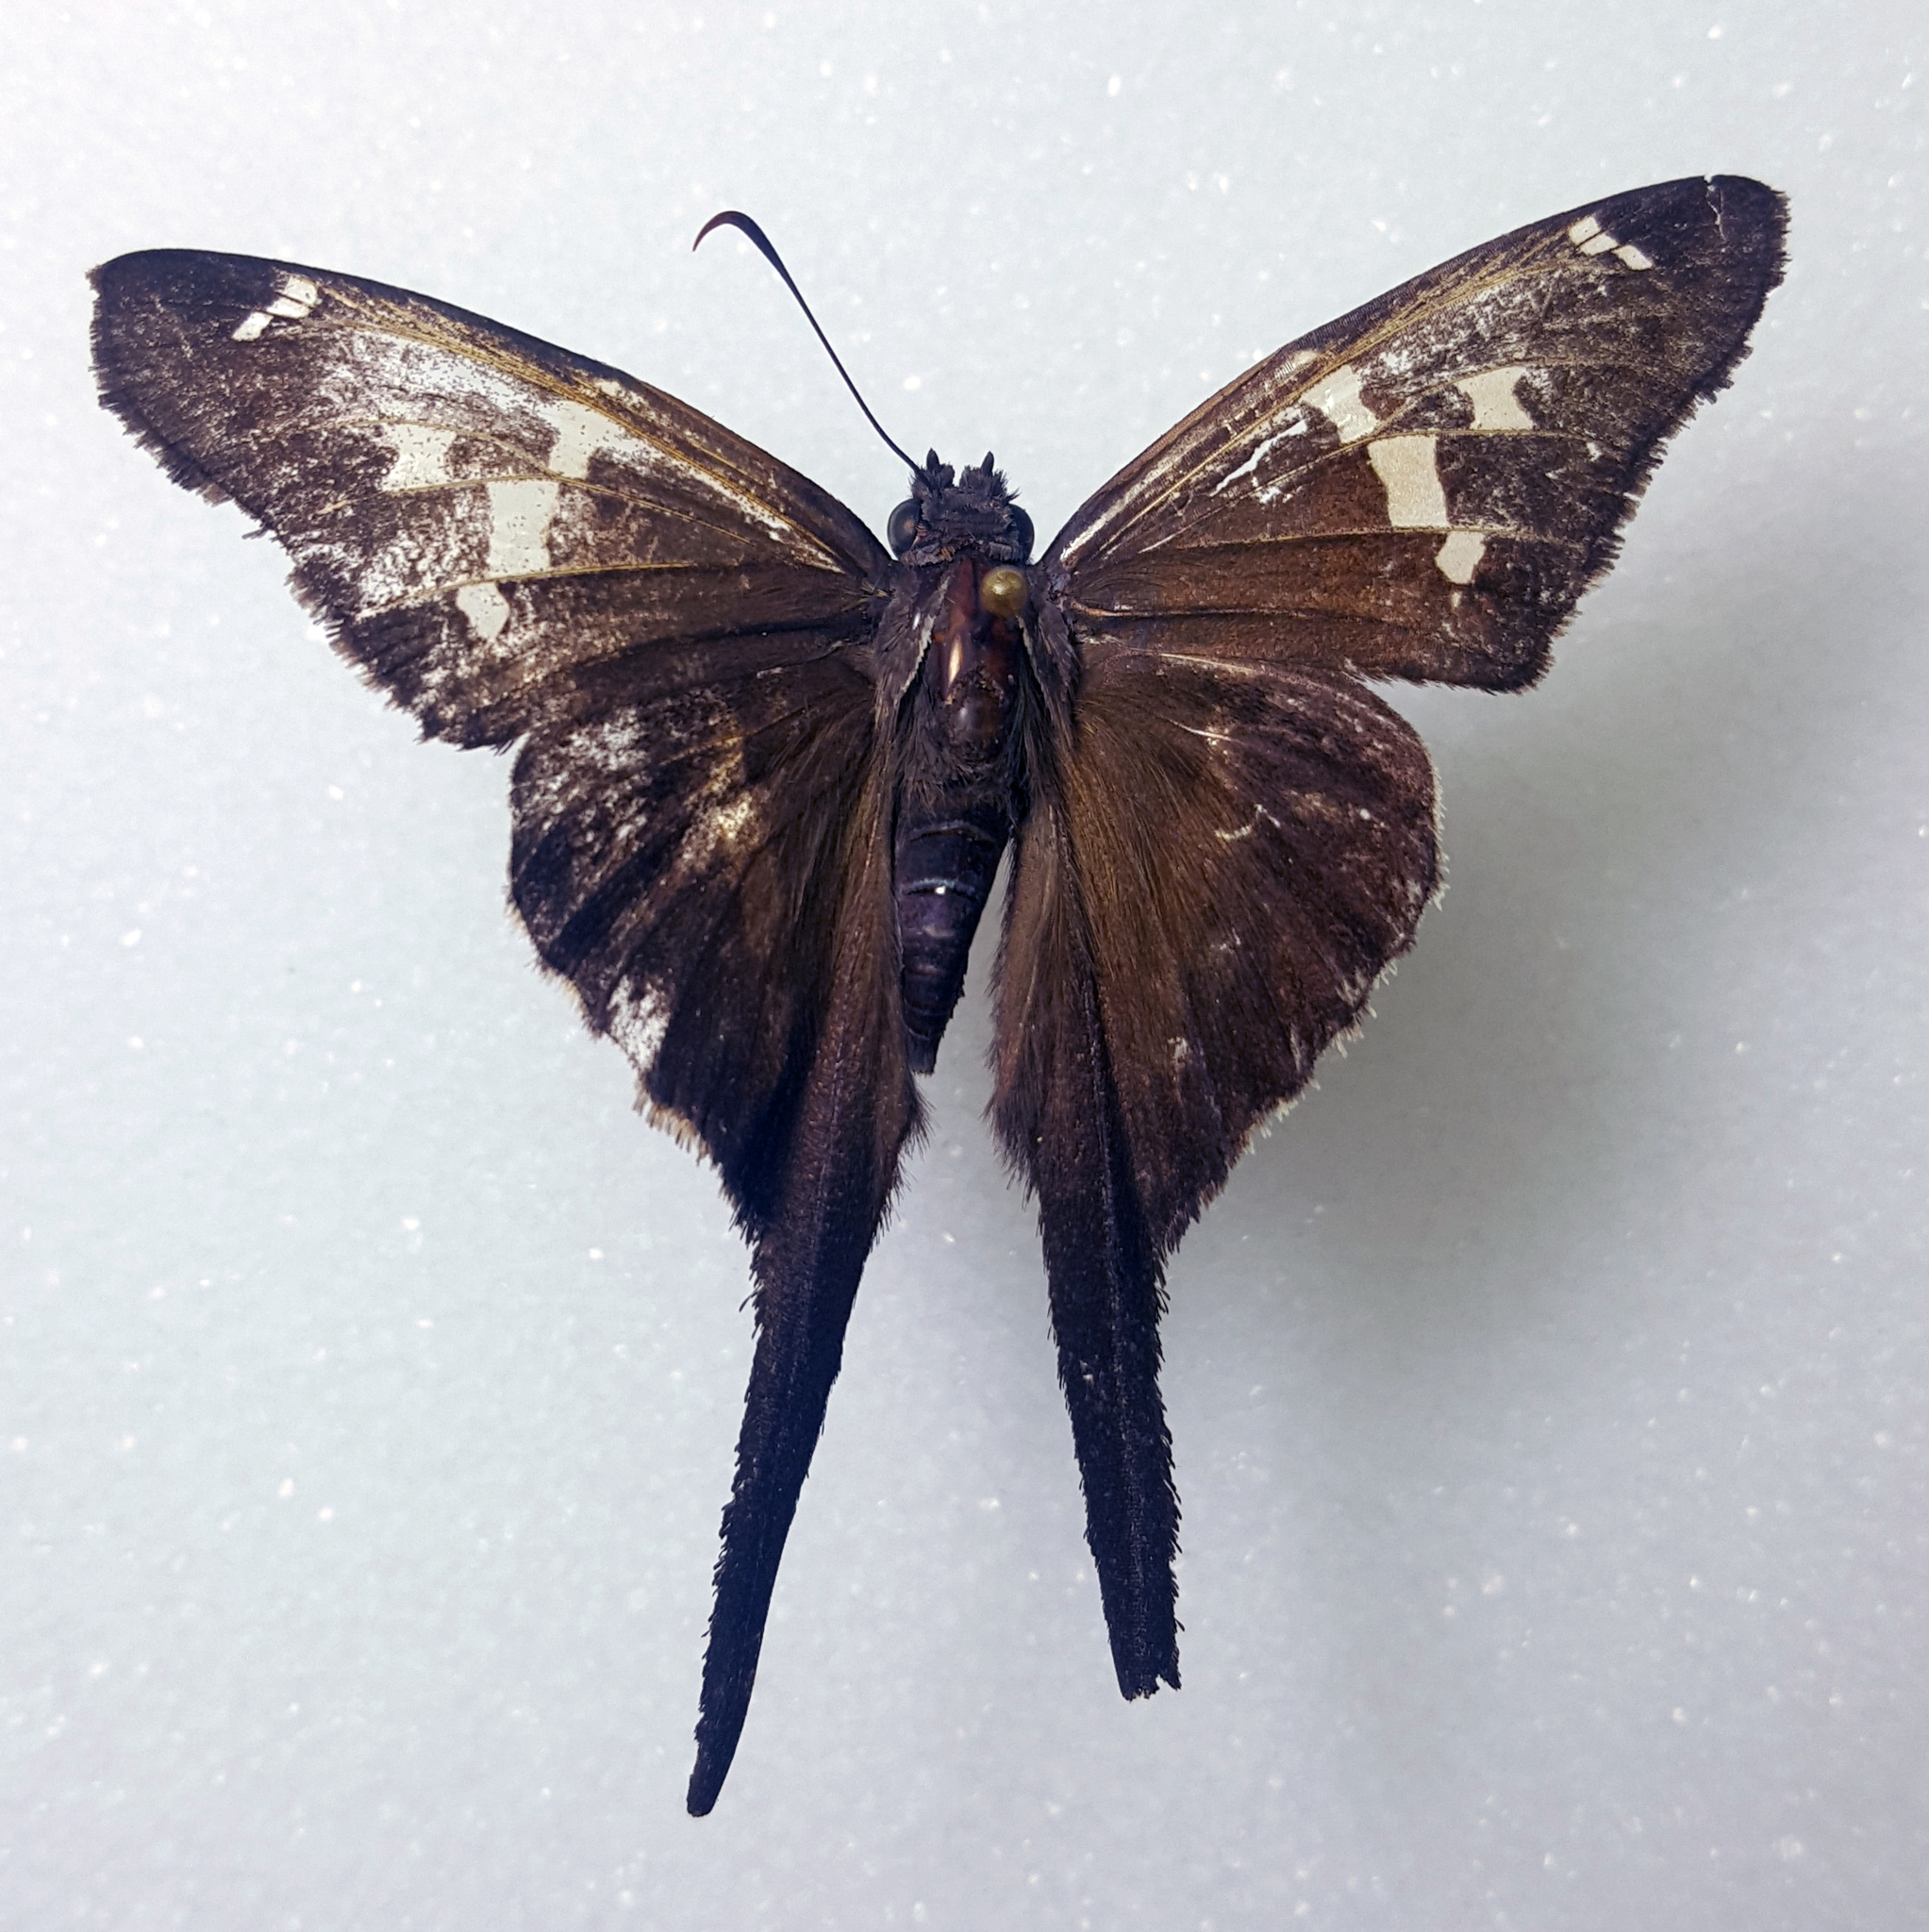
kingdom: Animalia
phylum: Arthropoda
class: Insecta
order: Lepidoptera
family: Hesperiidae
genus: Chioides
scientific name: Chioides catillus
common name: Silverbanded skipper
